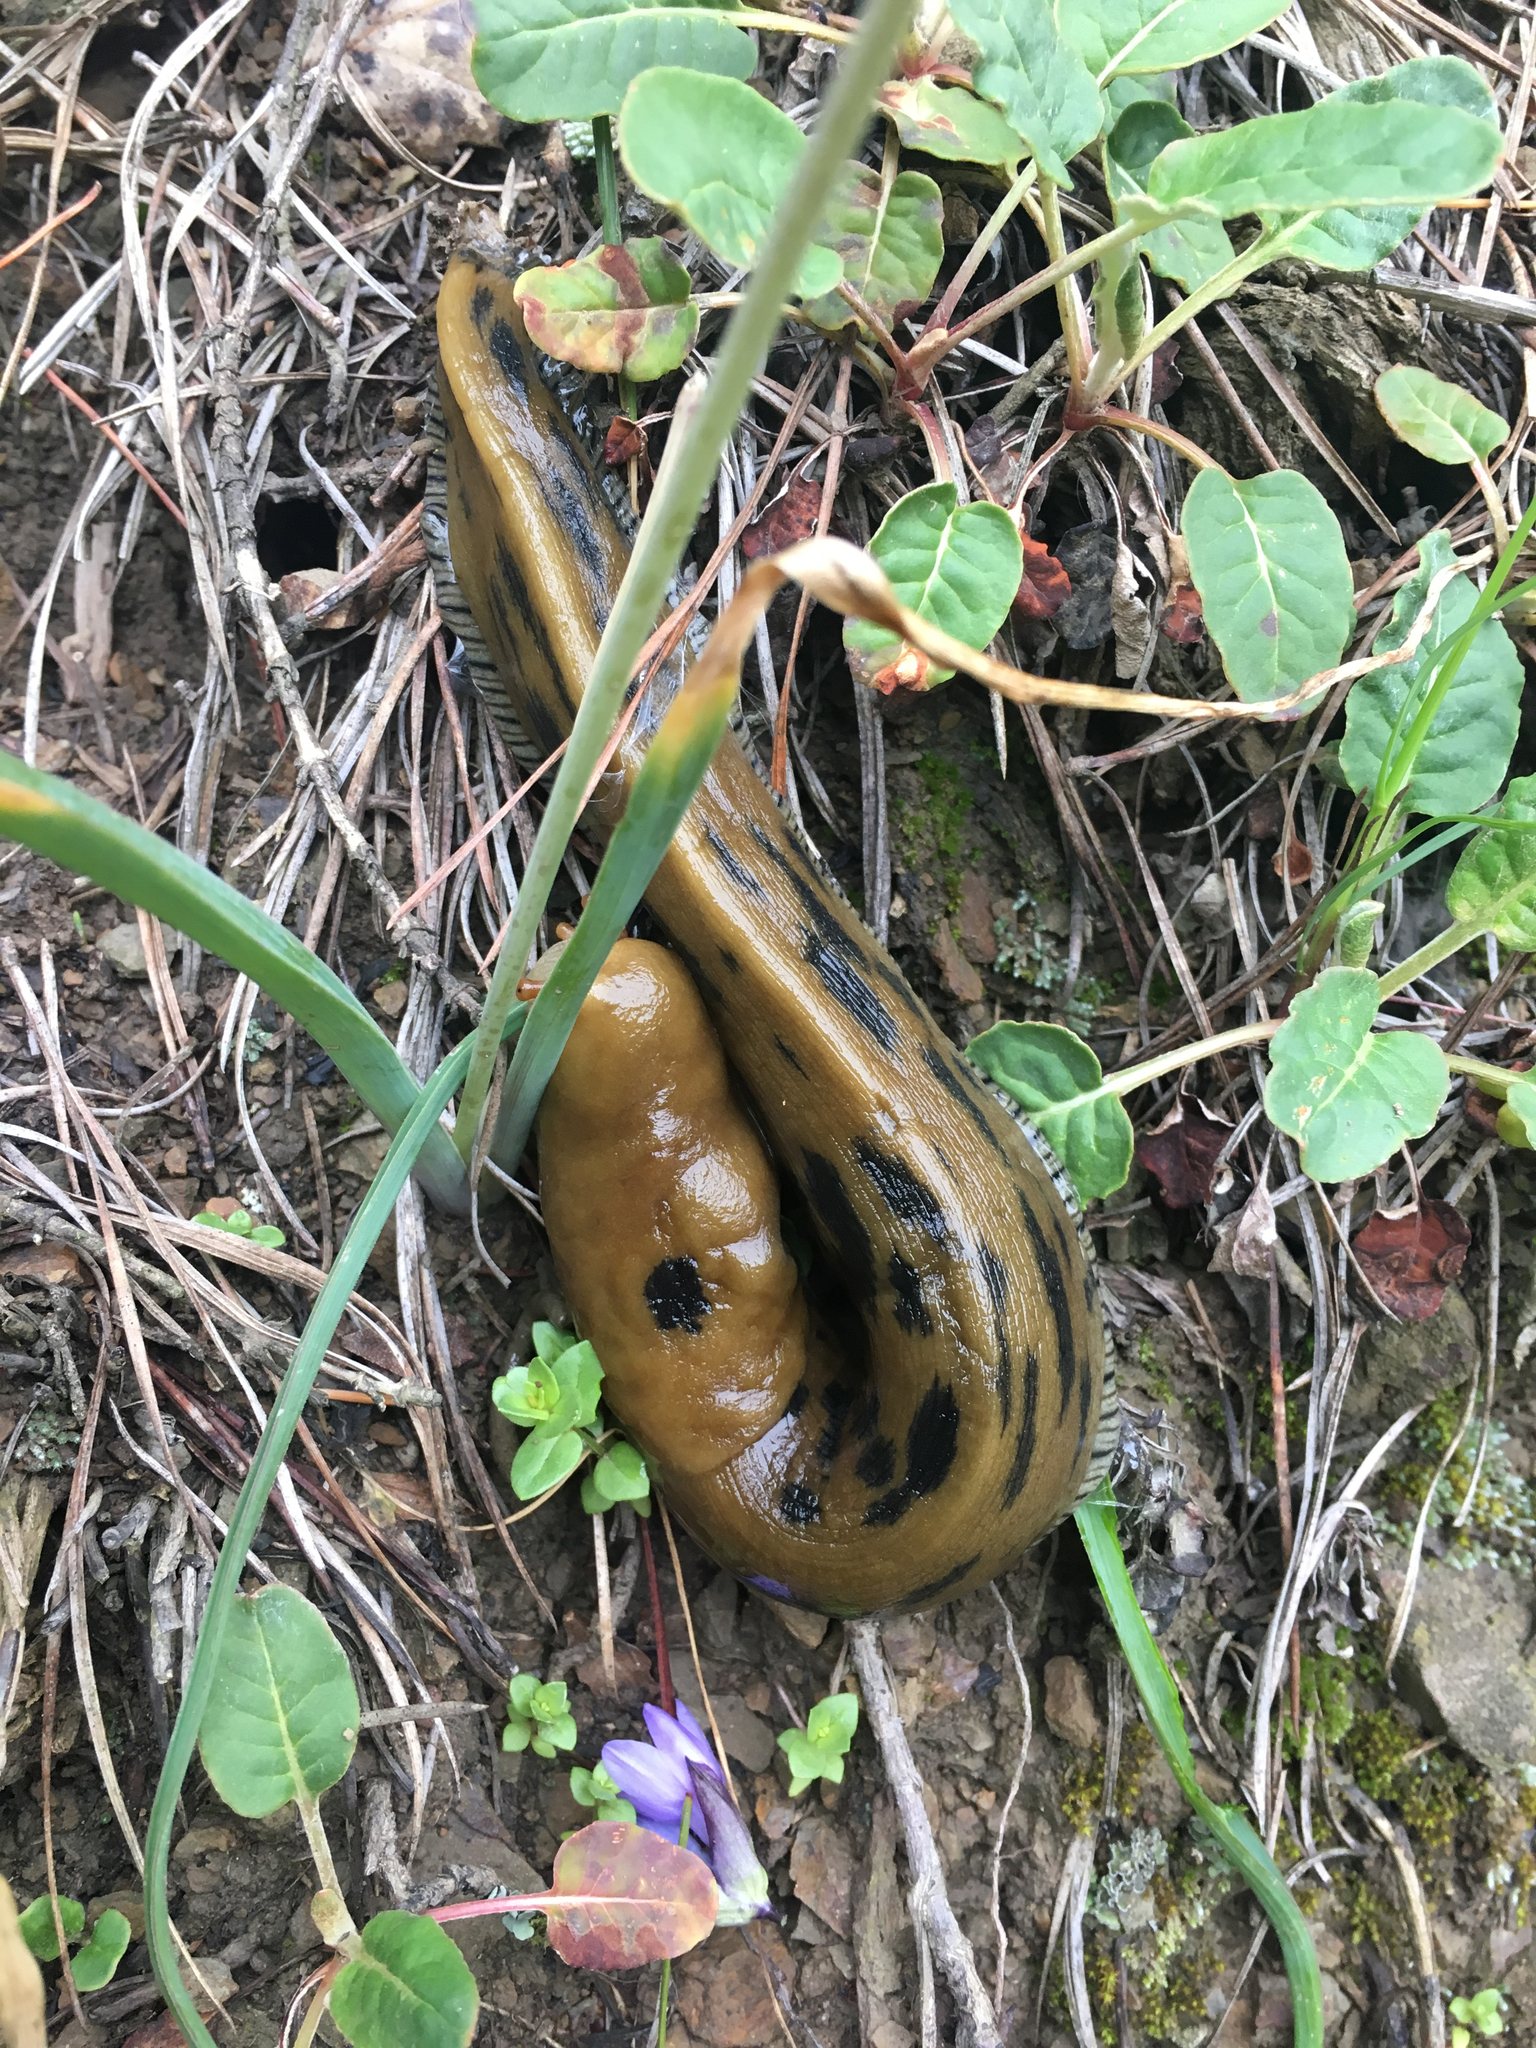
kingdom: Animalia
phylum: Mollusca
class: Gastropoda
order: Stylommatophora
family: Ariolimacidae
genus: Ariolimax
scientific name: Ariolimax buttoni
